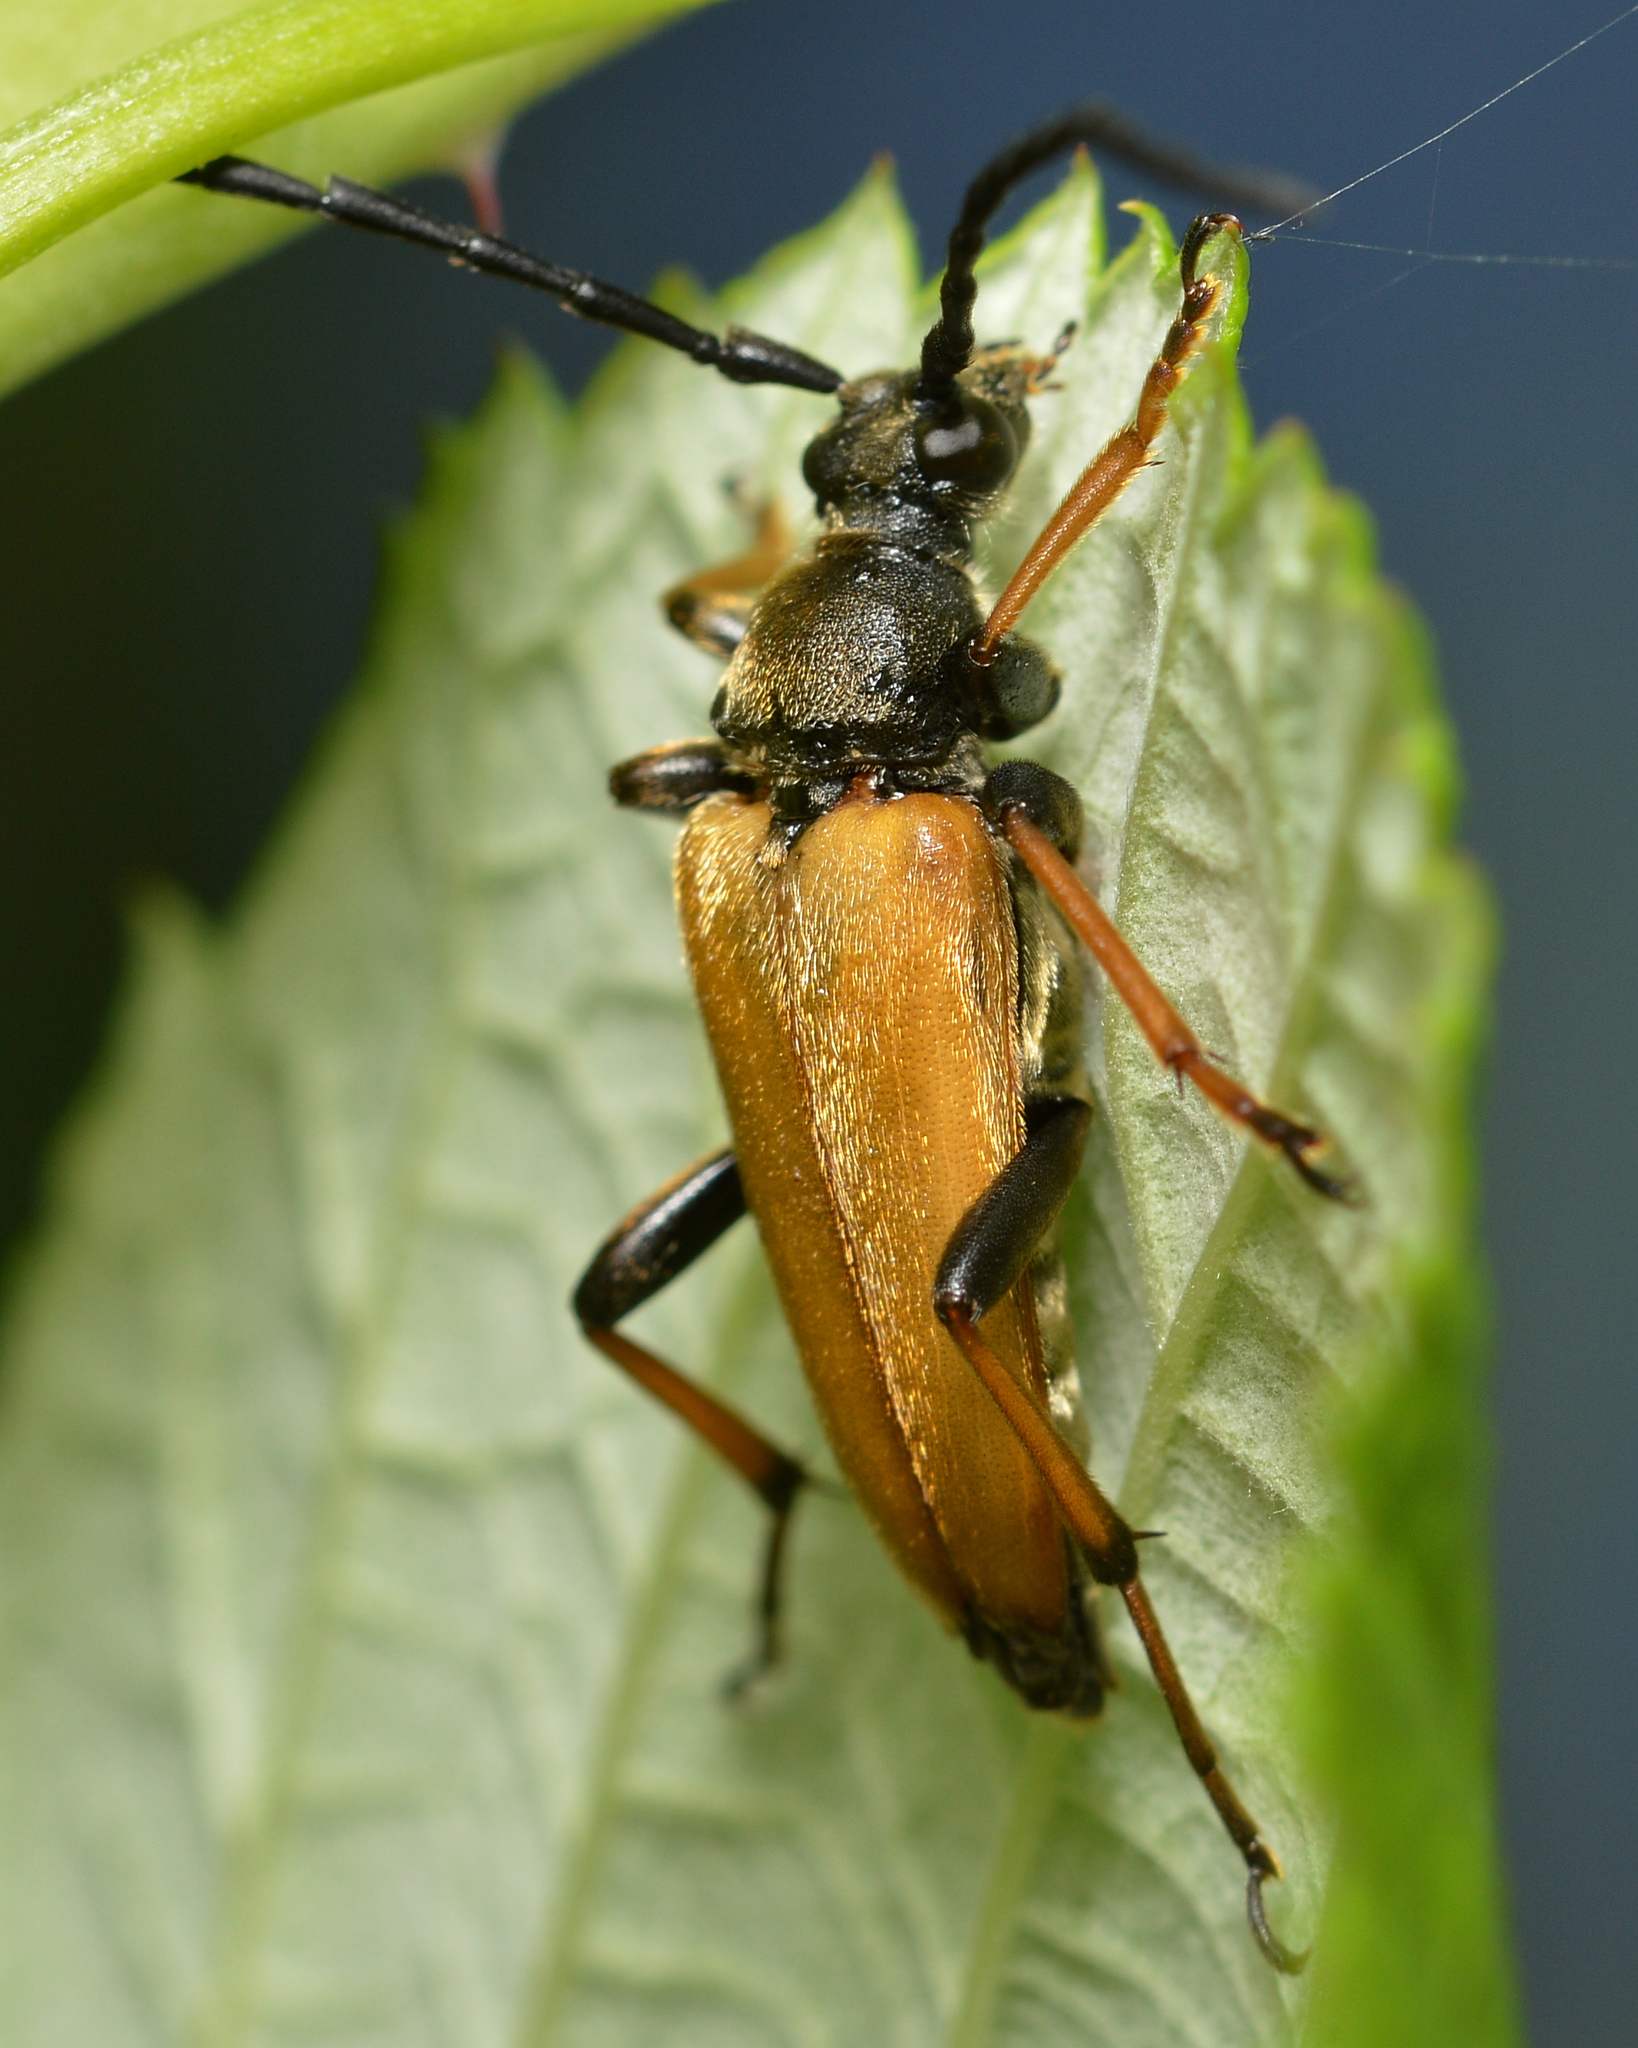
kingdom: Animalia
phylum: Arthropoda
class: Insecta
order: Coleoptera
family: Cerambycidae
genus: Stictoleptura
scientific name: Stictoleptura rubra
